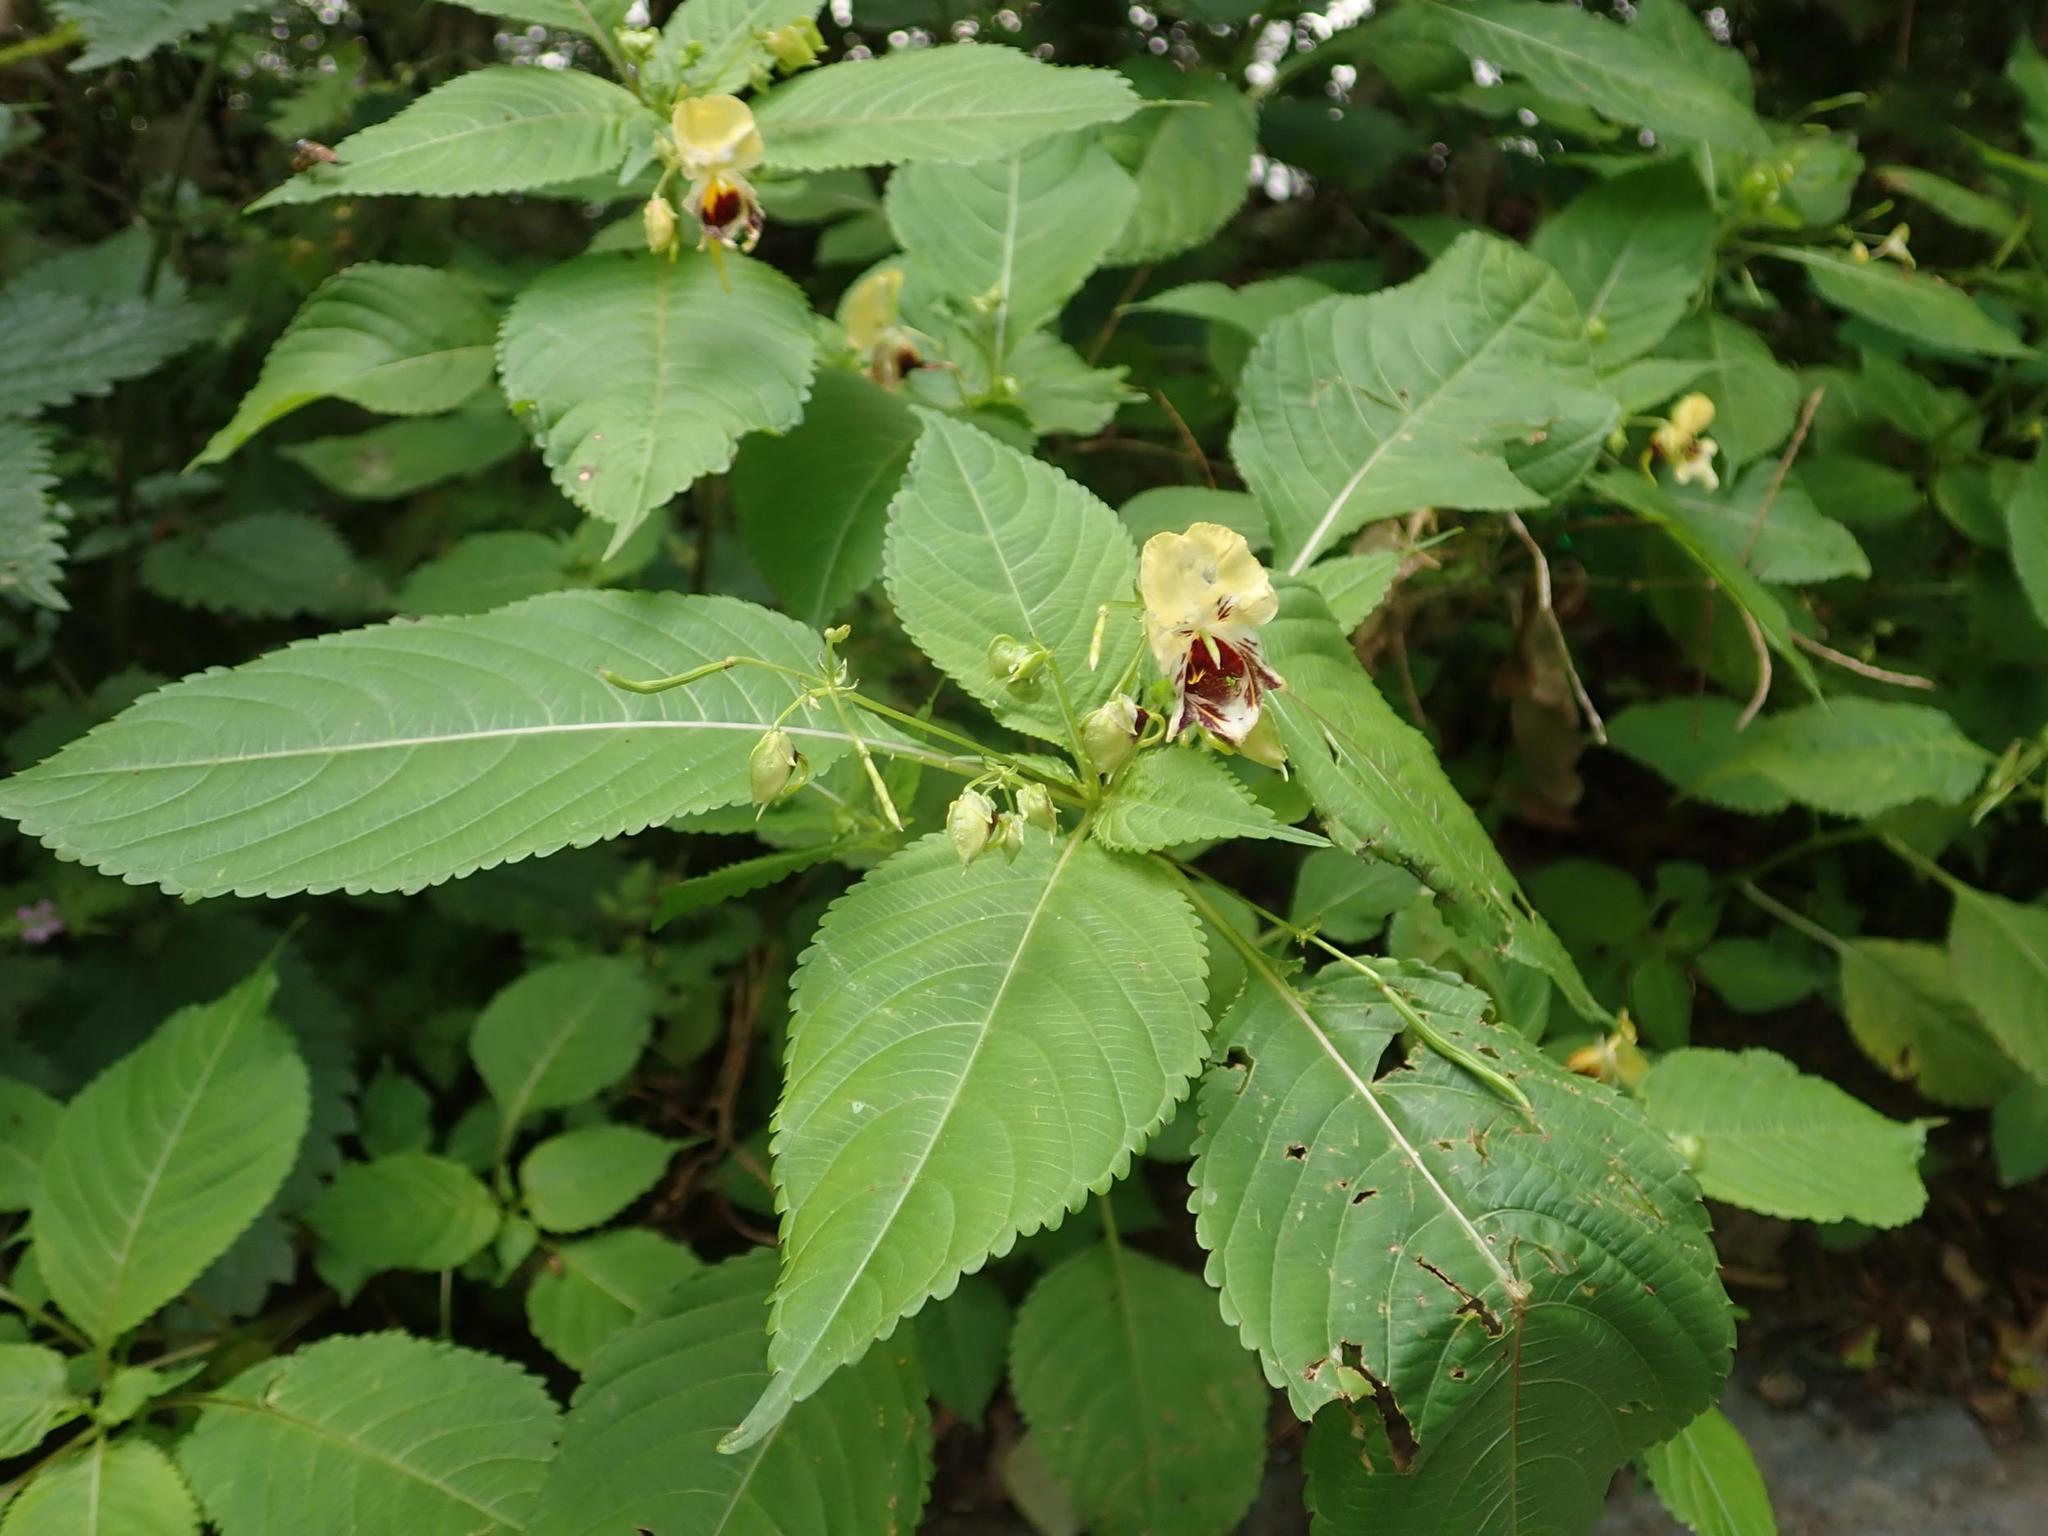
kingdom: Plantae
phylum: Tracheophyta
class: Magnoliopsida
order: Ericales
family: Balsaminaceae
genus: Impatiens
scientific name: Impatiens edgeworthii
